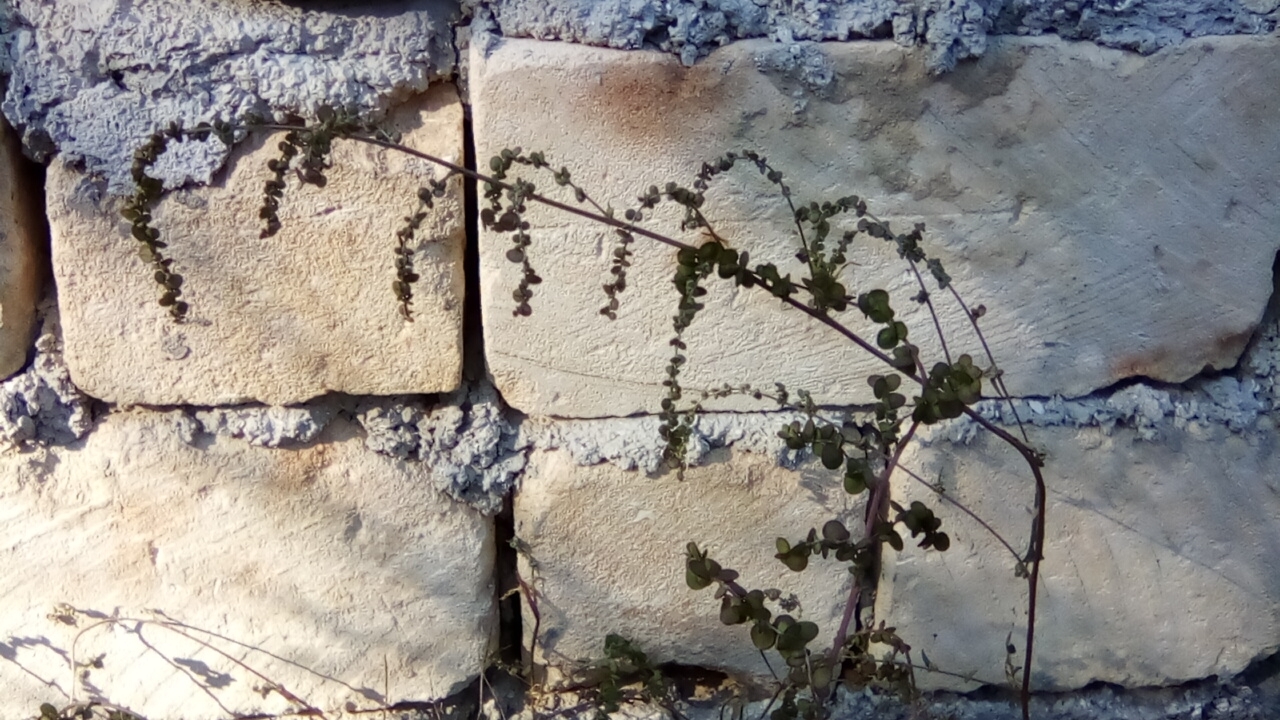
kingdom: Plantae
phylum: Tracheophyta
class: Magnoliopsida
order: Caryophyllales
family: Amaranthaceae
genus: Atriplex
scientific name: Atriplex aucheri
